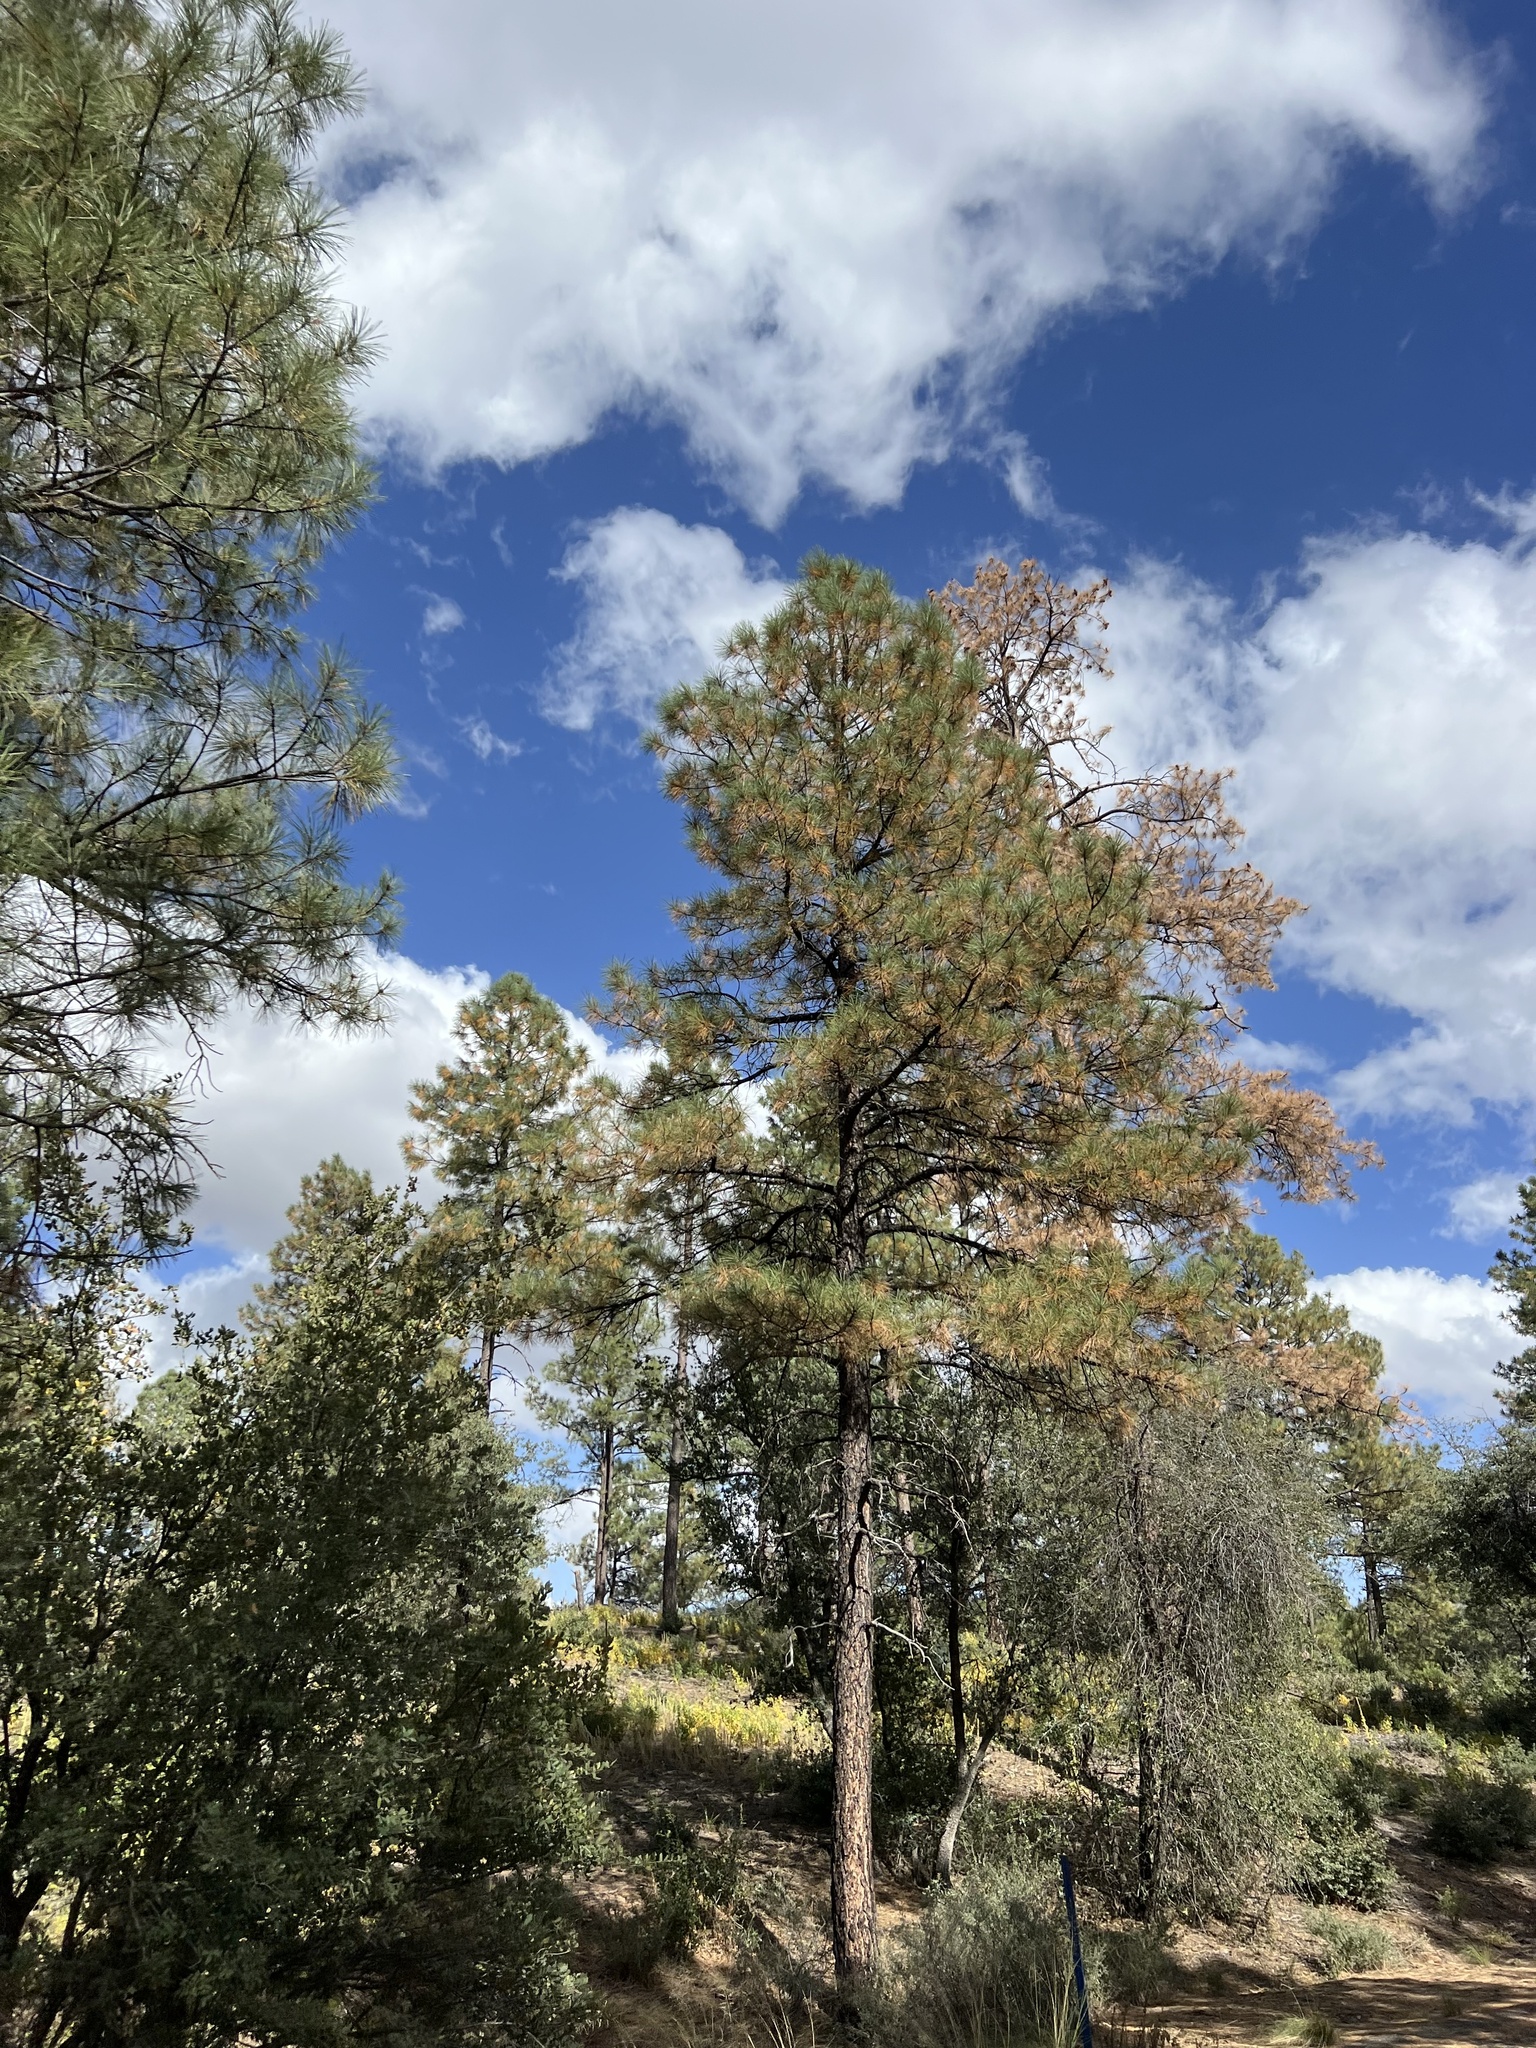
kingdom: Plantae
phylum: Tracheophyta
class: Pinopsida
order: Pinales
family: Pinaceae
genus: Pinus
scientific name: Pinus ponderosa
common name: Western yellow-pine
